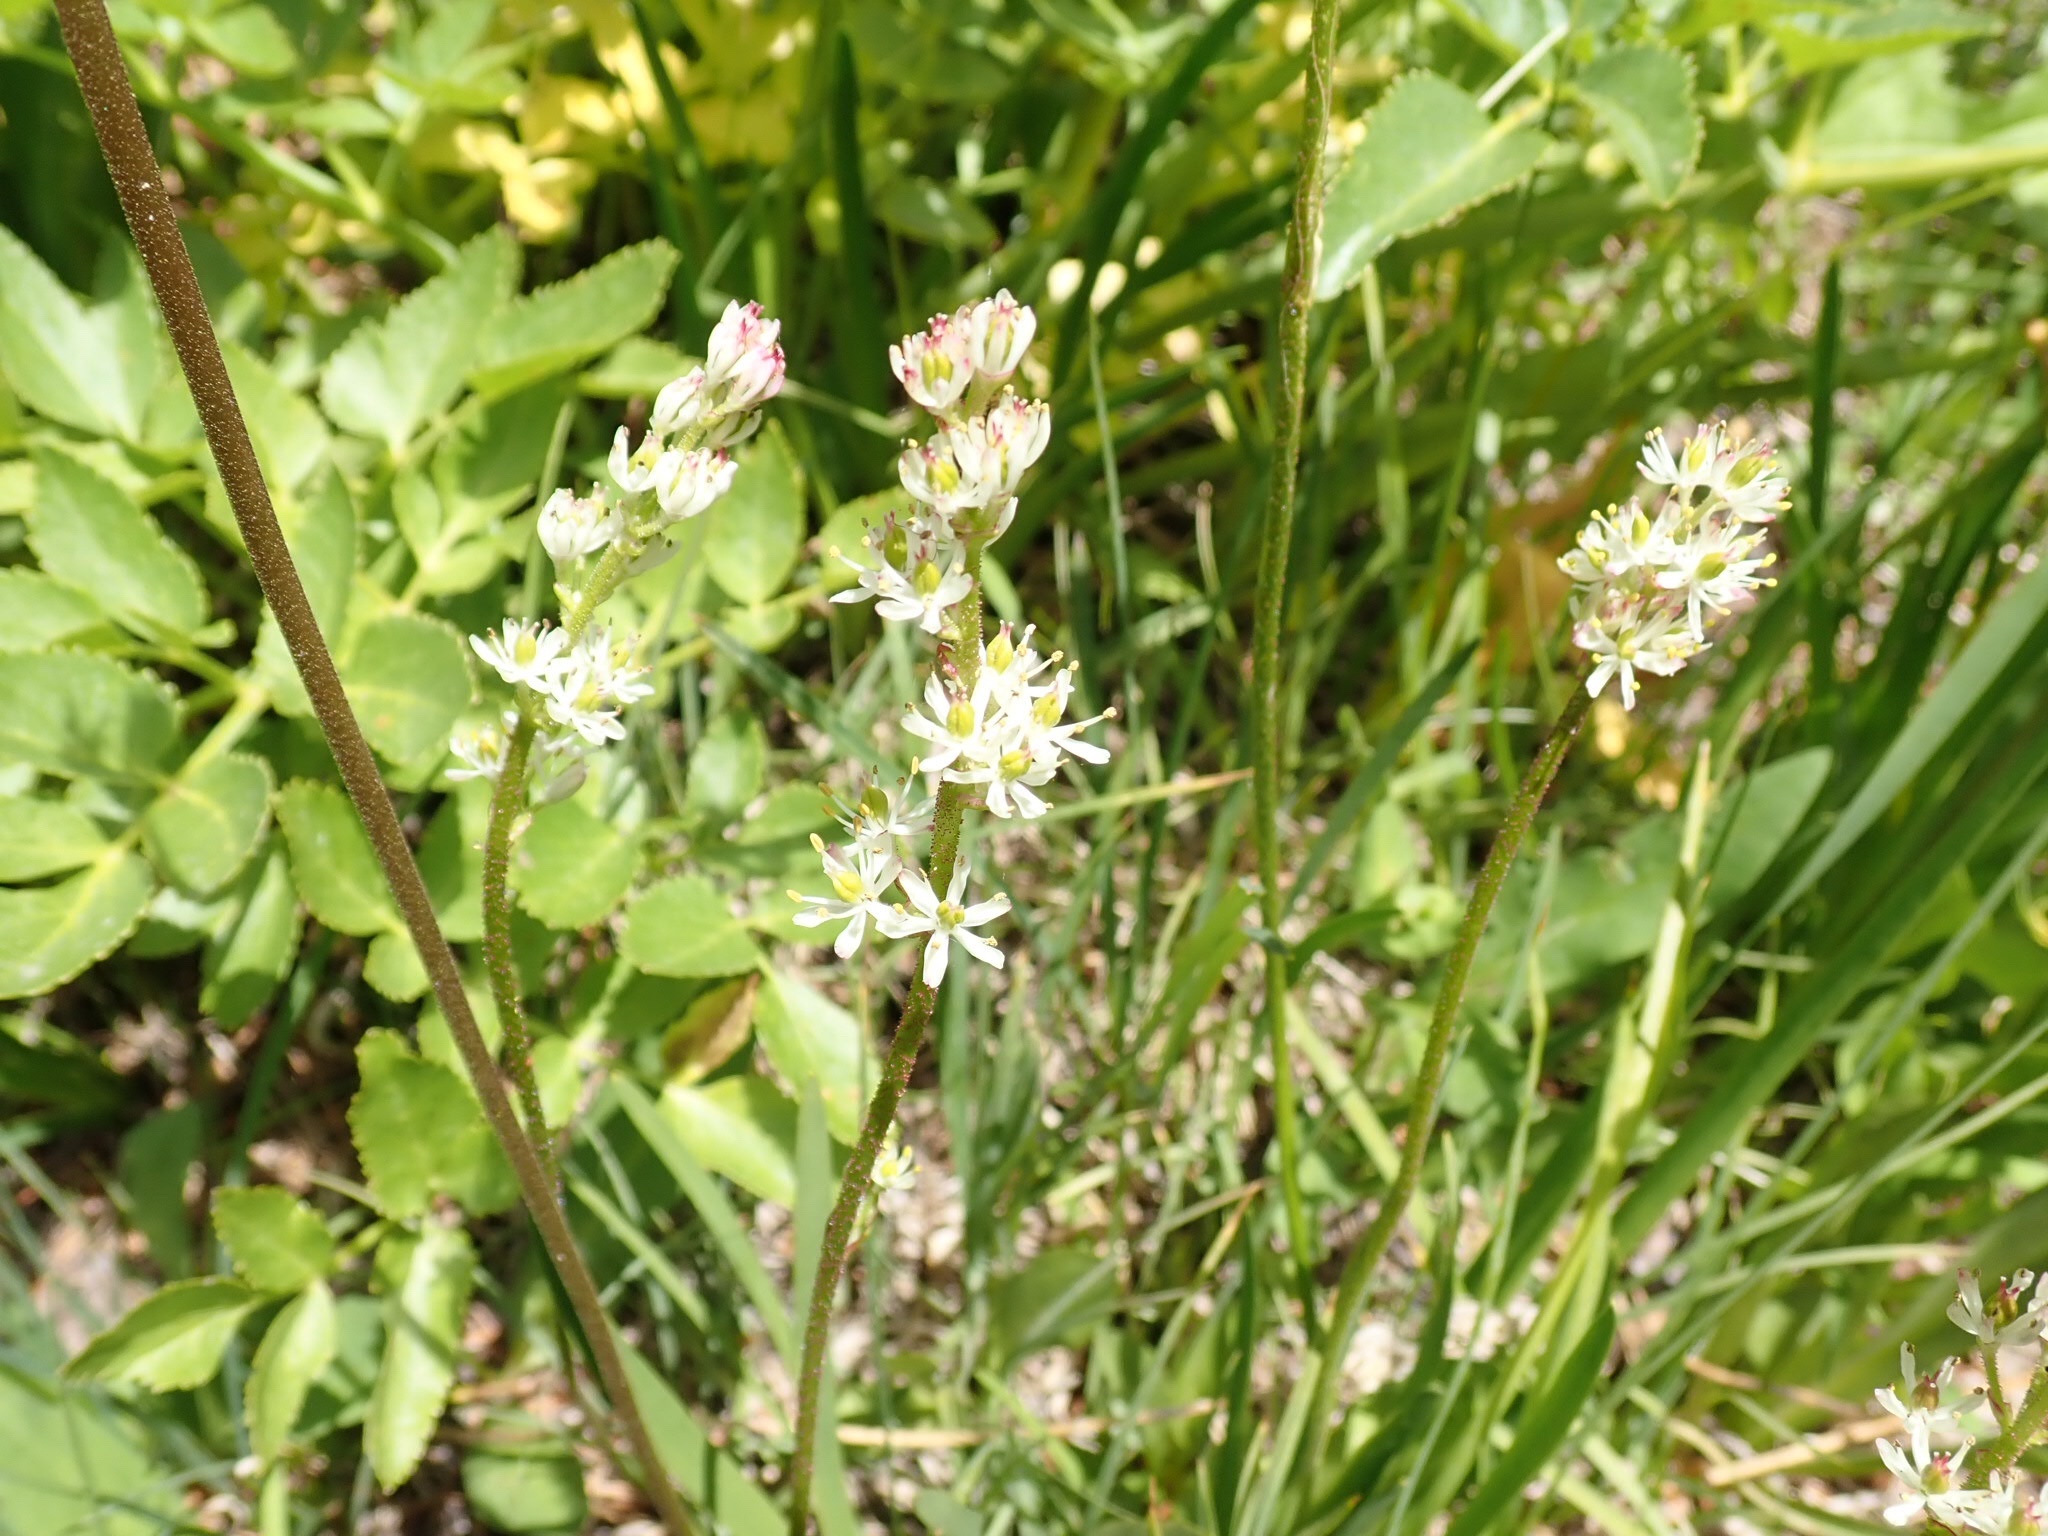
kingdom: Plantae
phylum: Tracheophyta
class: Liliopsida
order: Alismatales
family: Tofieldiaceae
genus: Triantha
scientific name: Triantha occidentalis
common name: Western false asphodel
